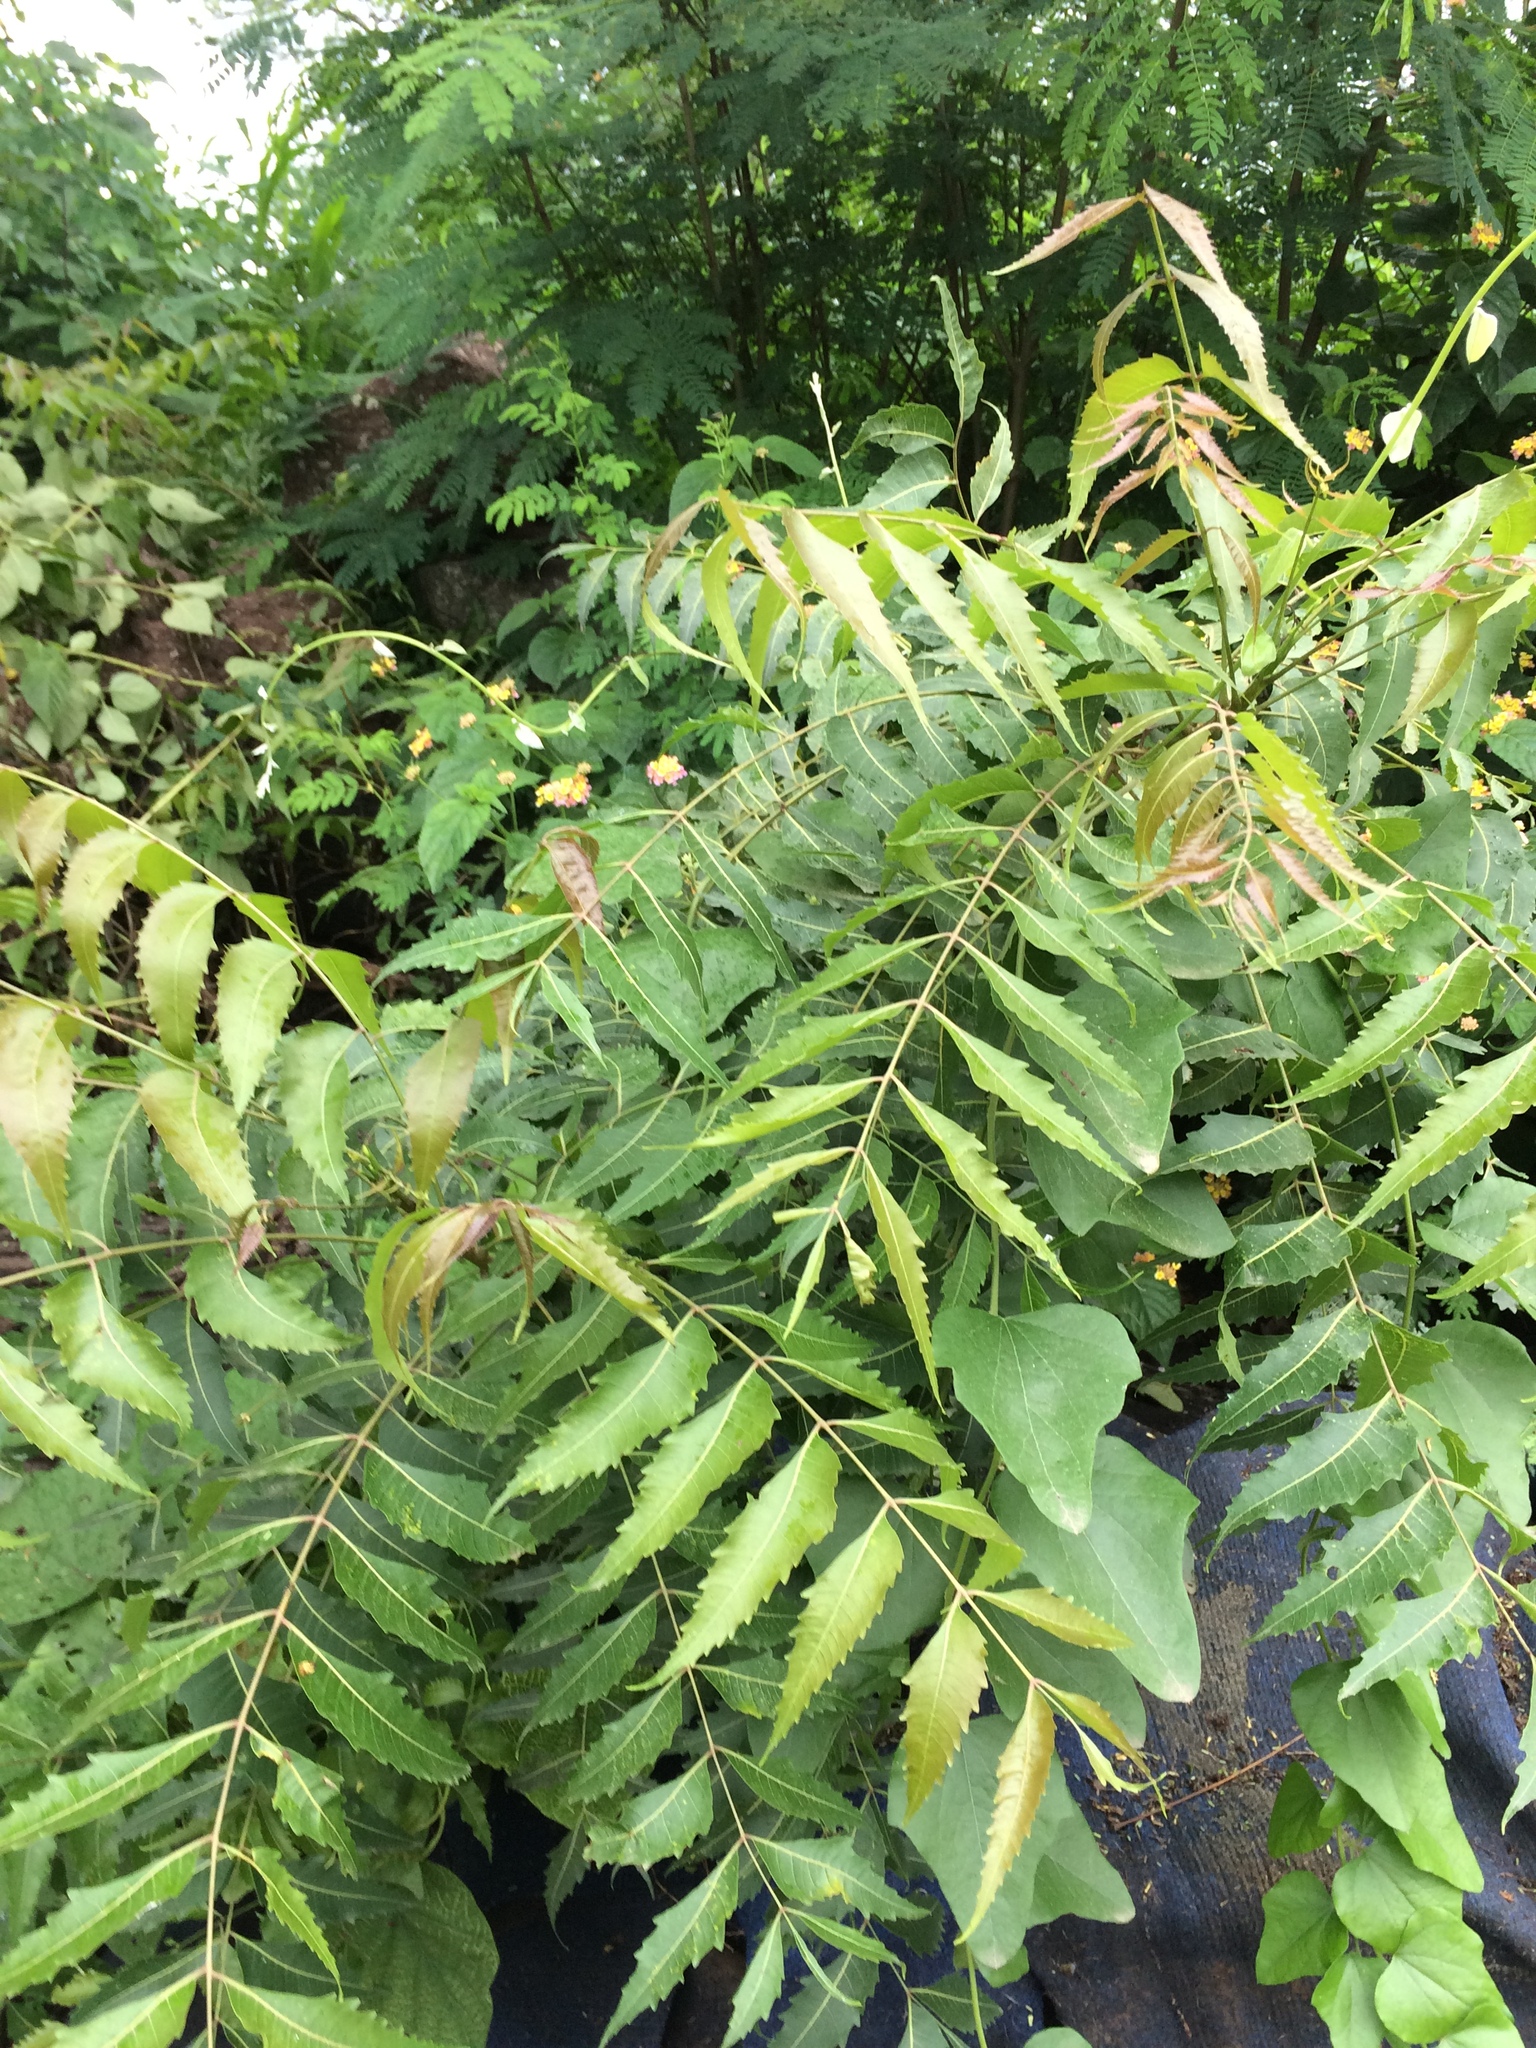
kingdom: Plantae
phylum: Tracheophyta
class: Magnoliopsida
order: Sapindales
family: Meliaceae
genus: Azadirachta
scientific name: Azadirachta indica
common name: Neem
